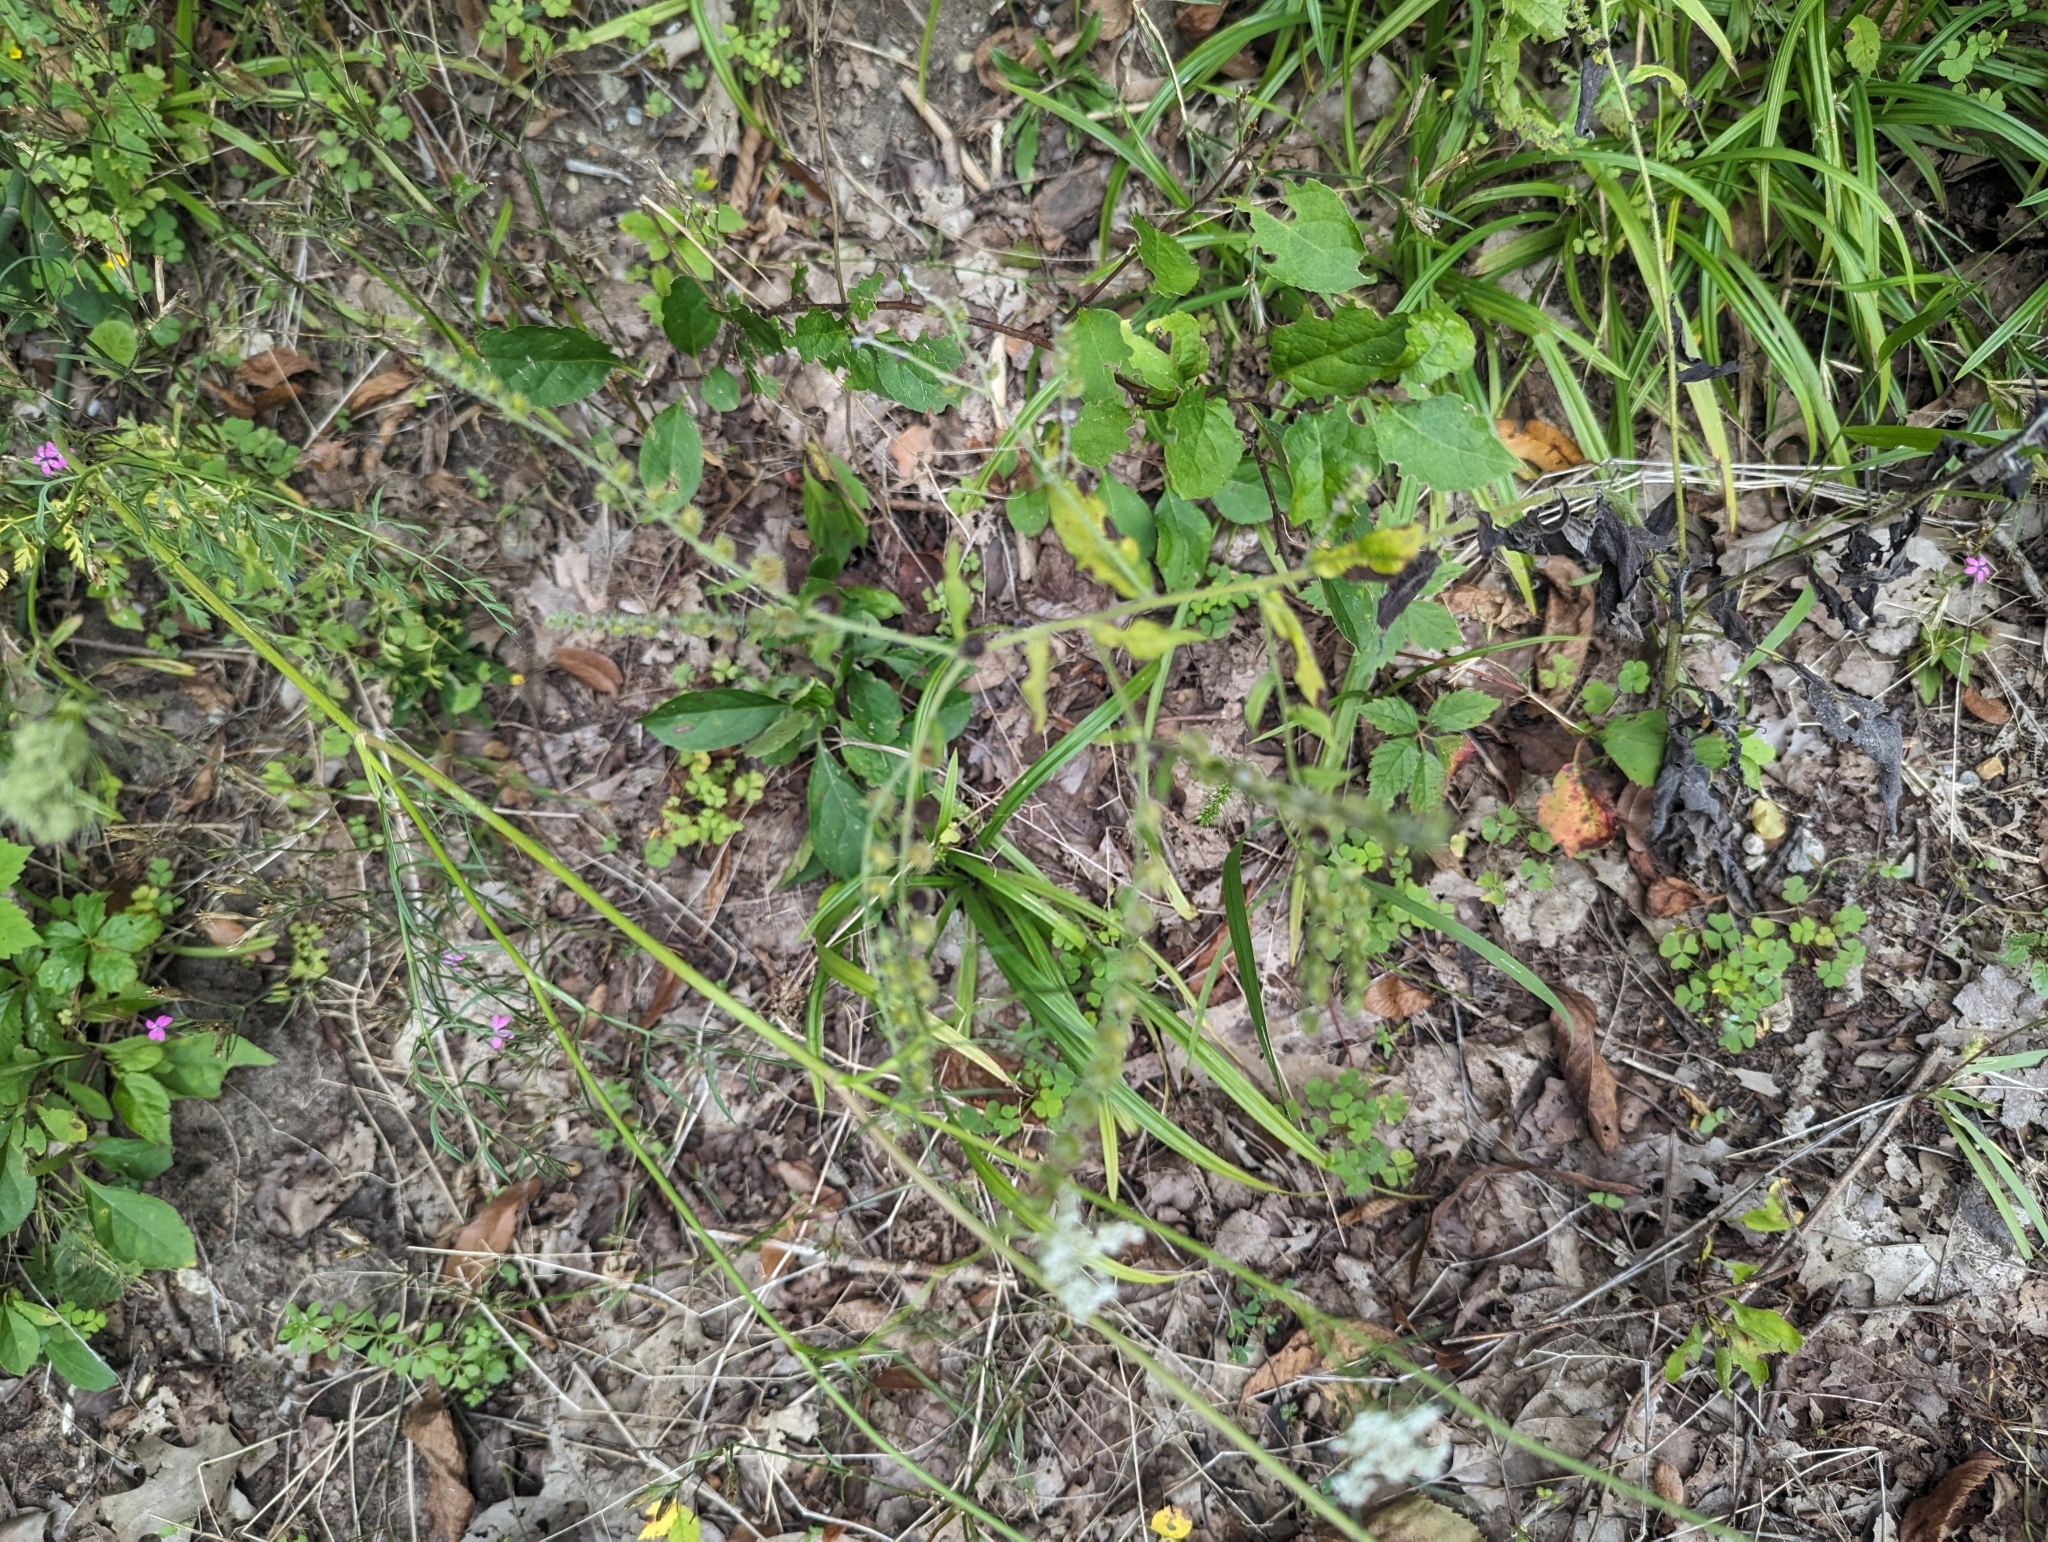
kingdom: Plantae
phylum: Tracheophyta
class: Magnoliopsida
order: Boraginales
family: Boraginaceae
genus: Hackelia
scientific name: Hackelia virginiana
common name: Beggar's-lice
